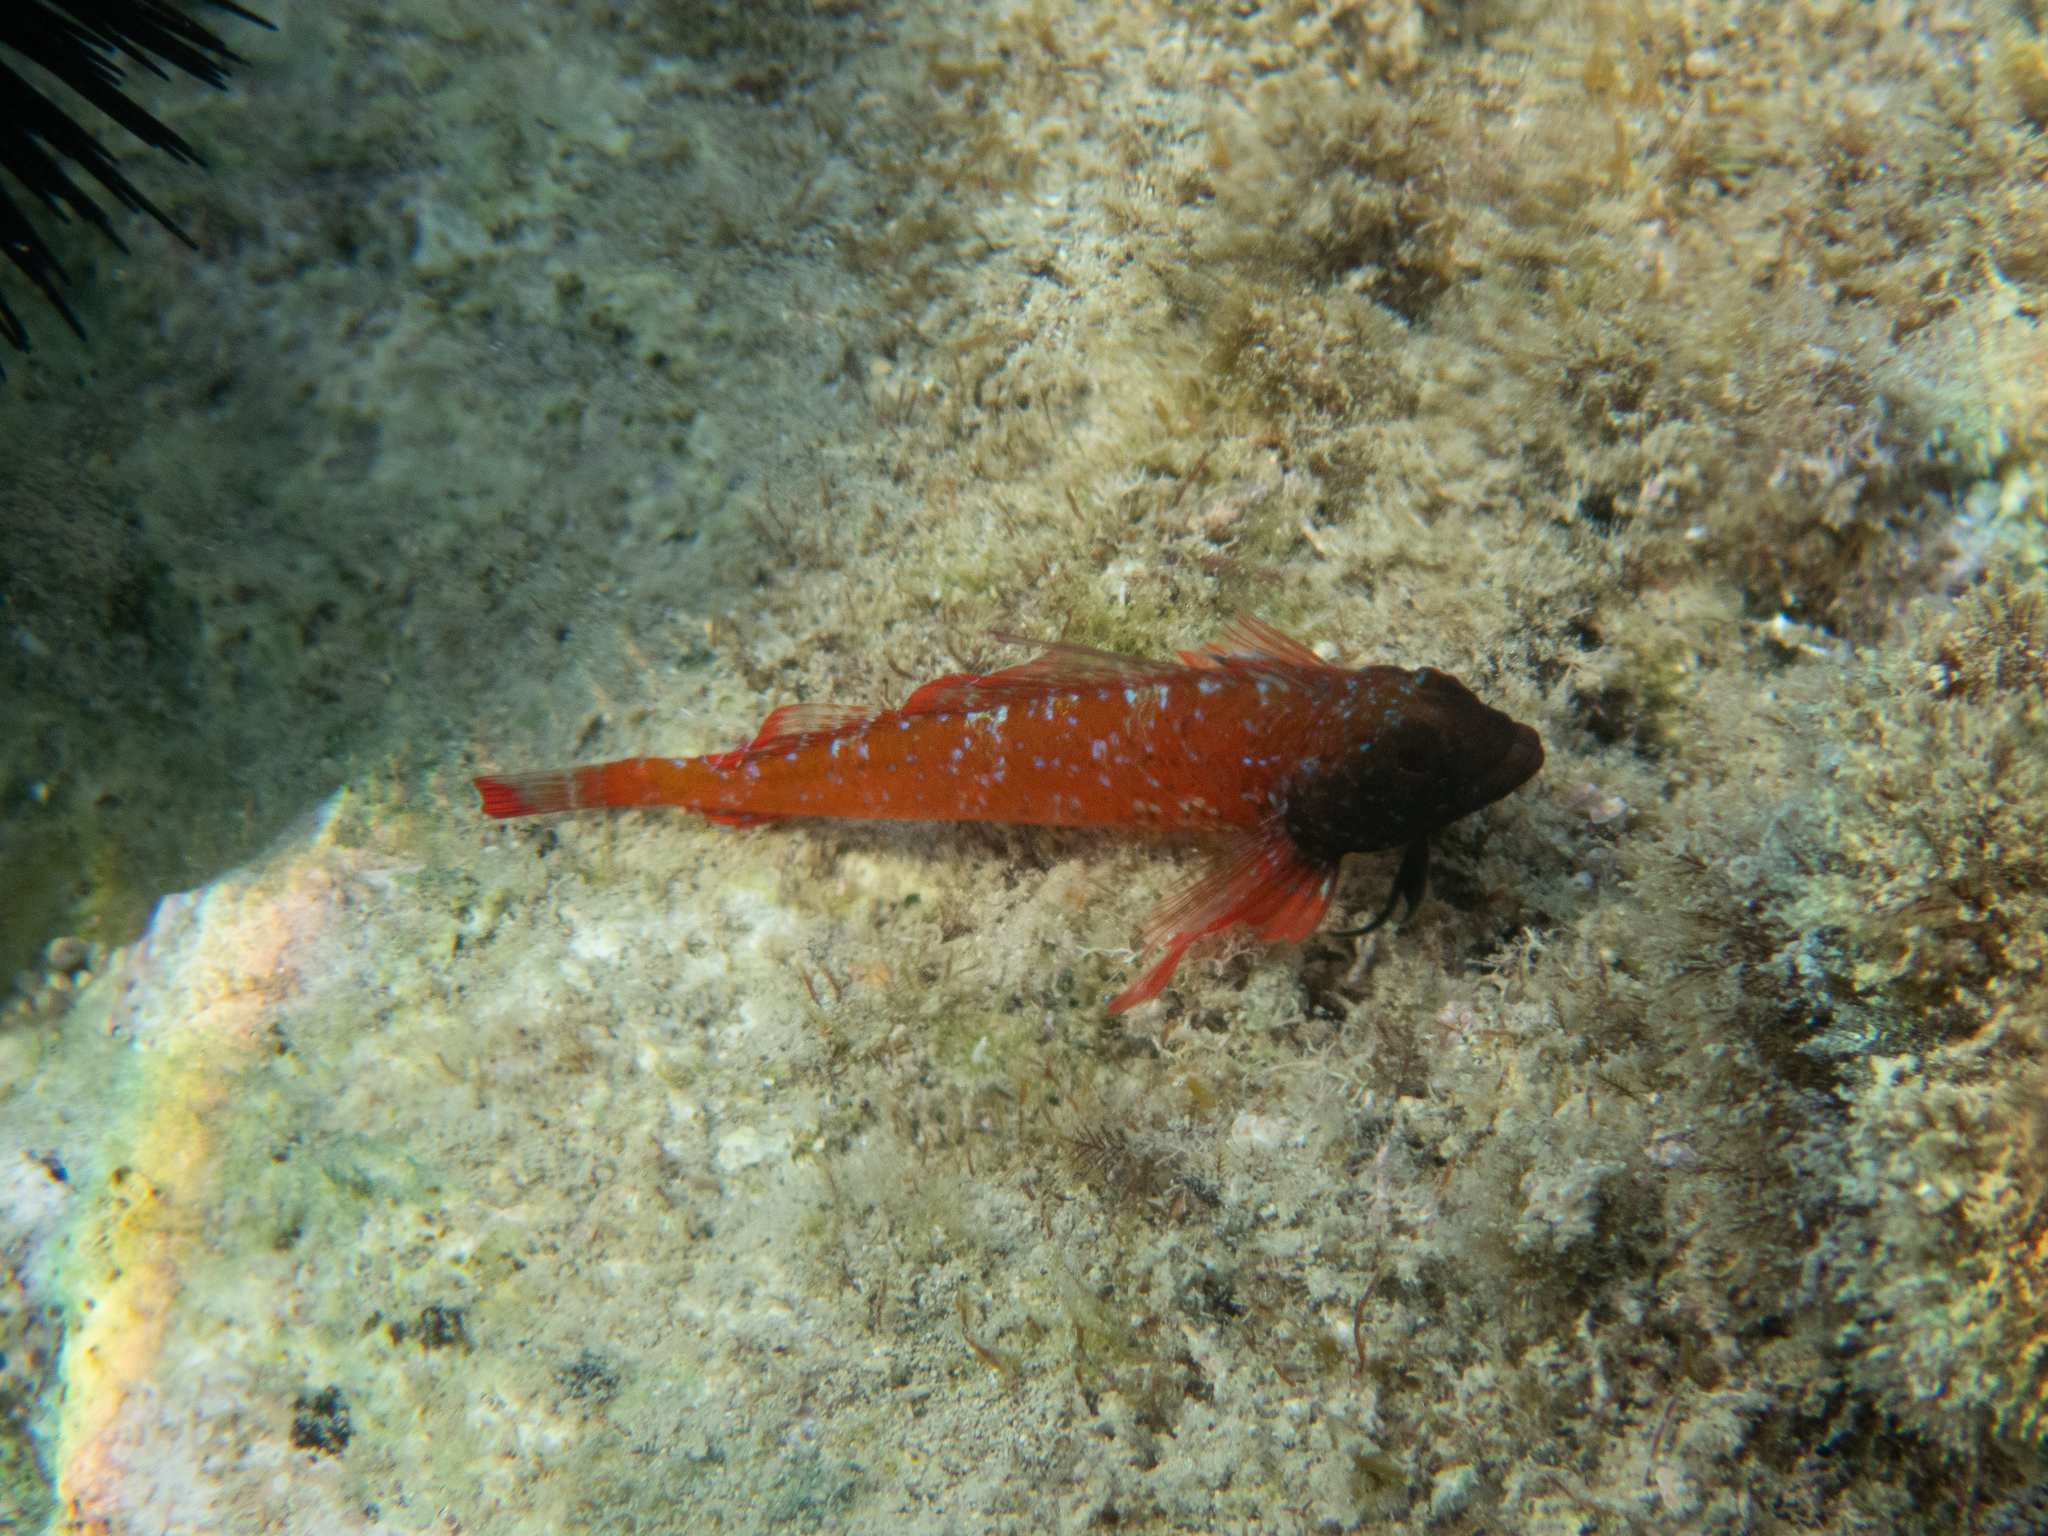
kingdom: Animalia
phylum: Chordata
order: Perciformes
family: Tripterygiidae
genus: Tripterygion
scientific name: Tripterygion tripteronotum
